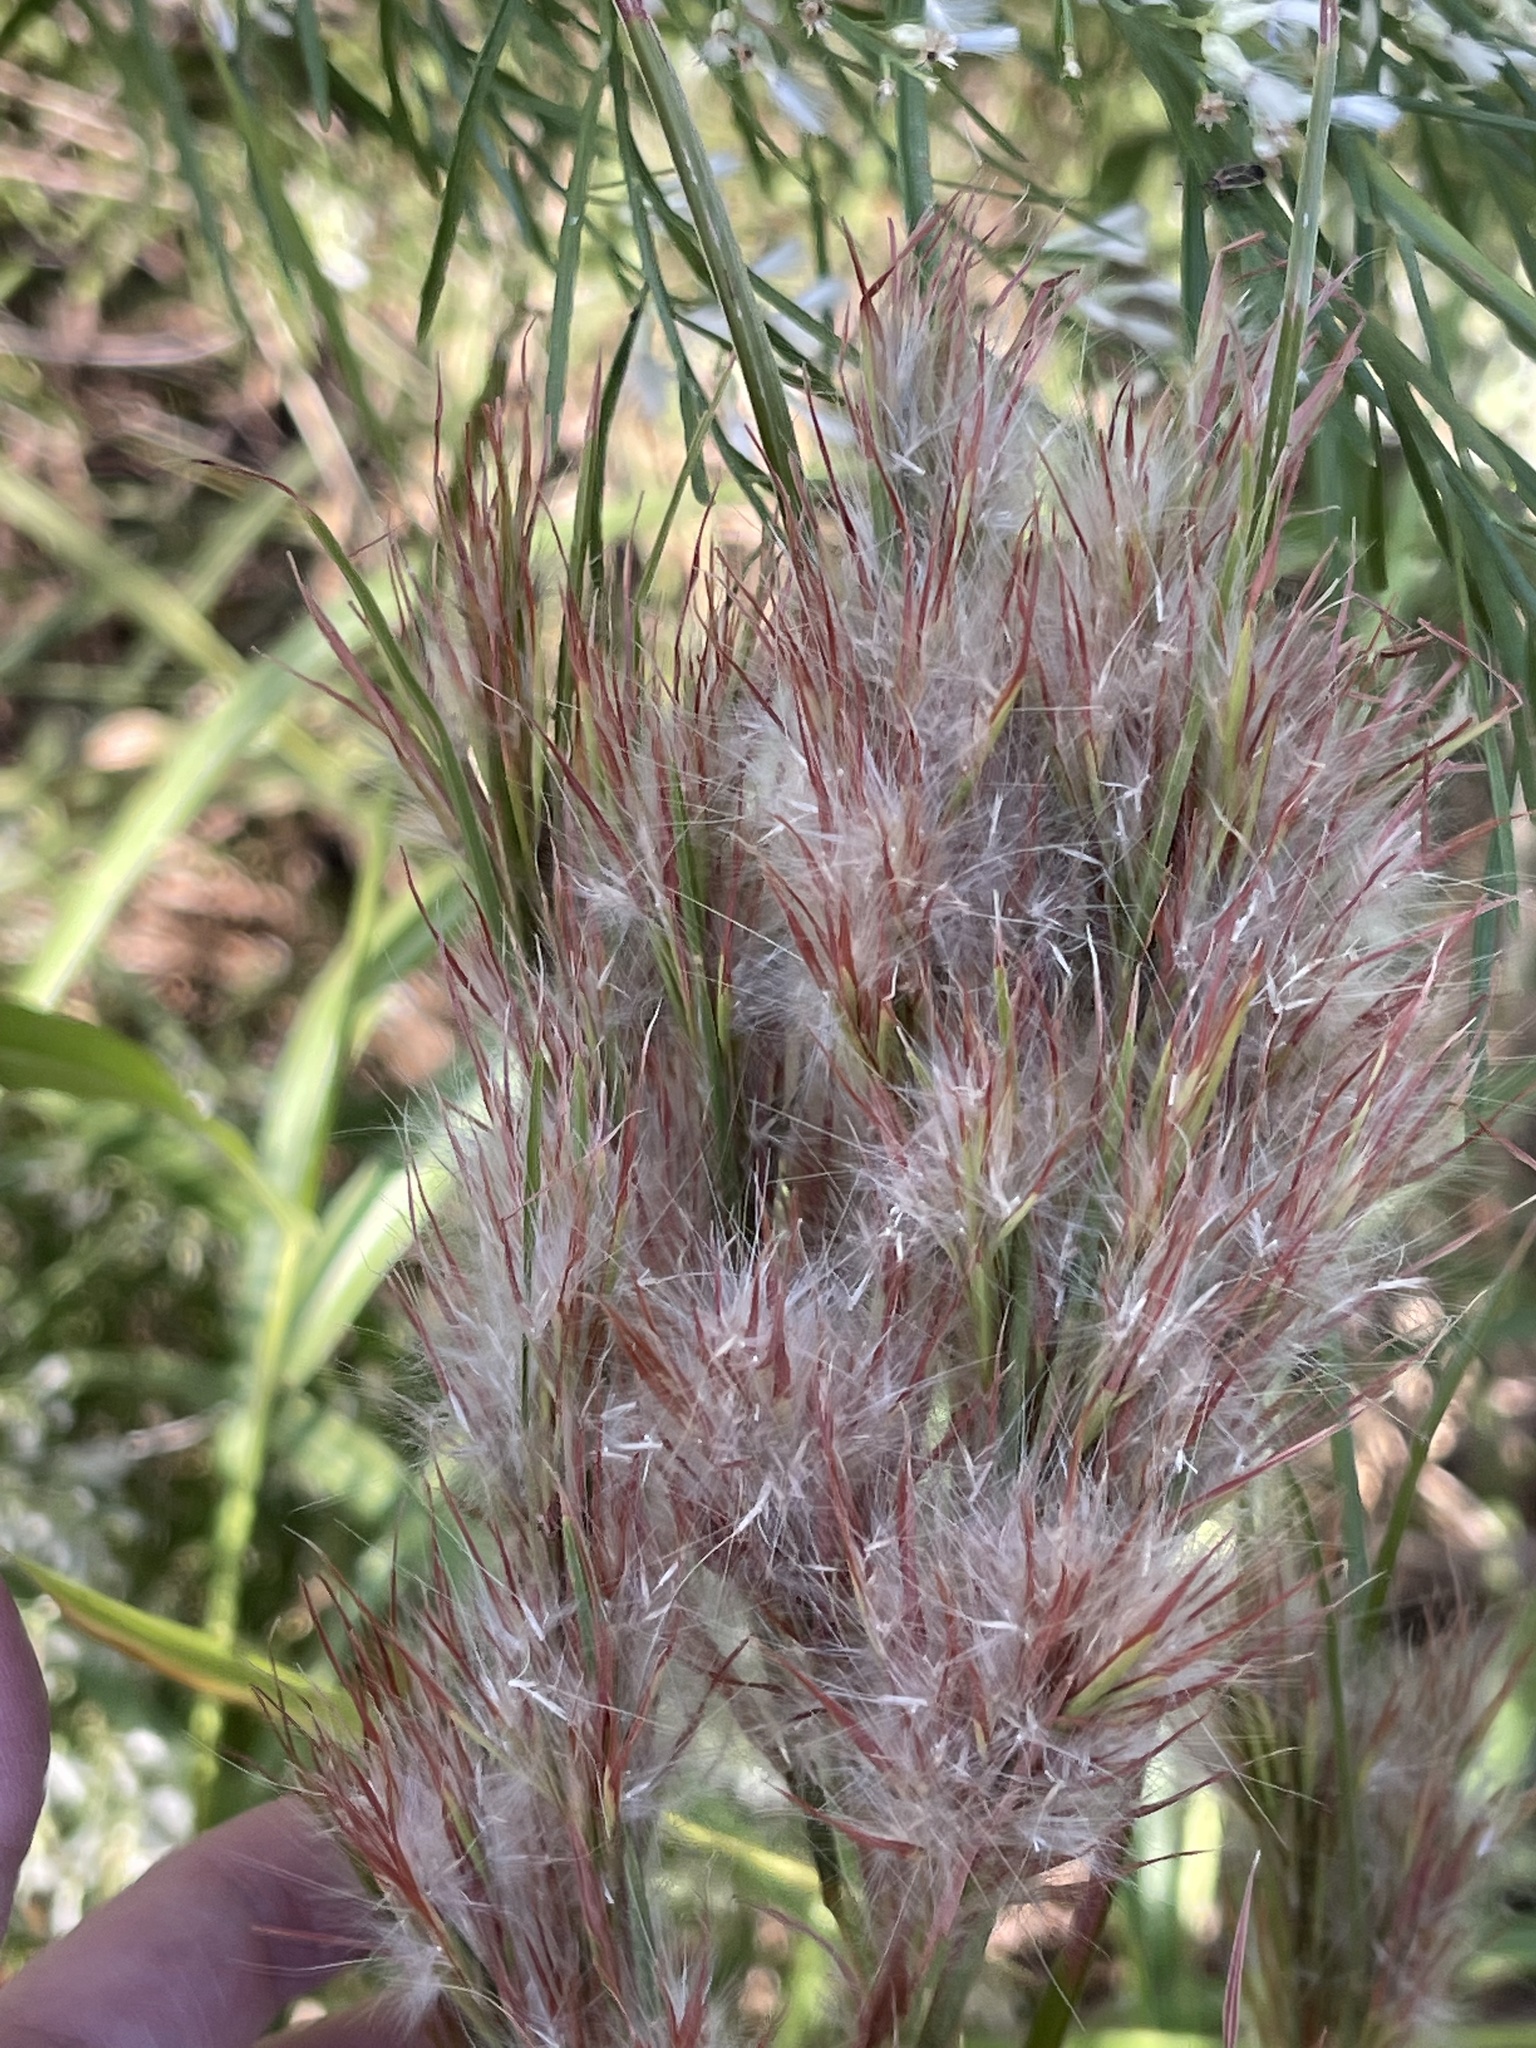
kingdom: Plantae
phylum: Tracheophyta
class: Liliopsida
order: Poales
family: Poaceae
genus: Andropogon
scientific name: Andropogon tenuispatheus
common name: Bushy bluestem
